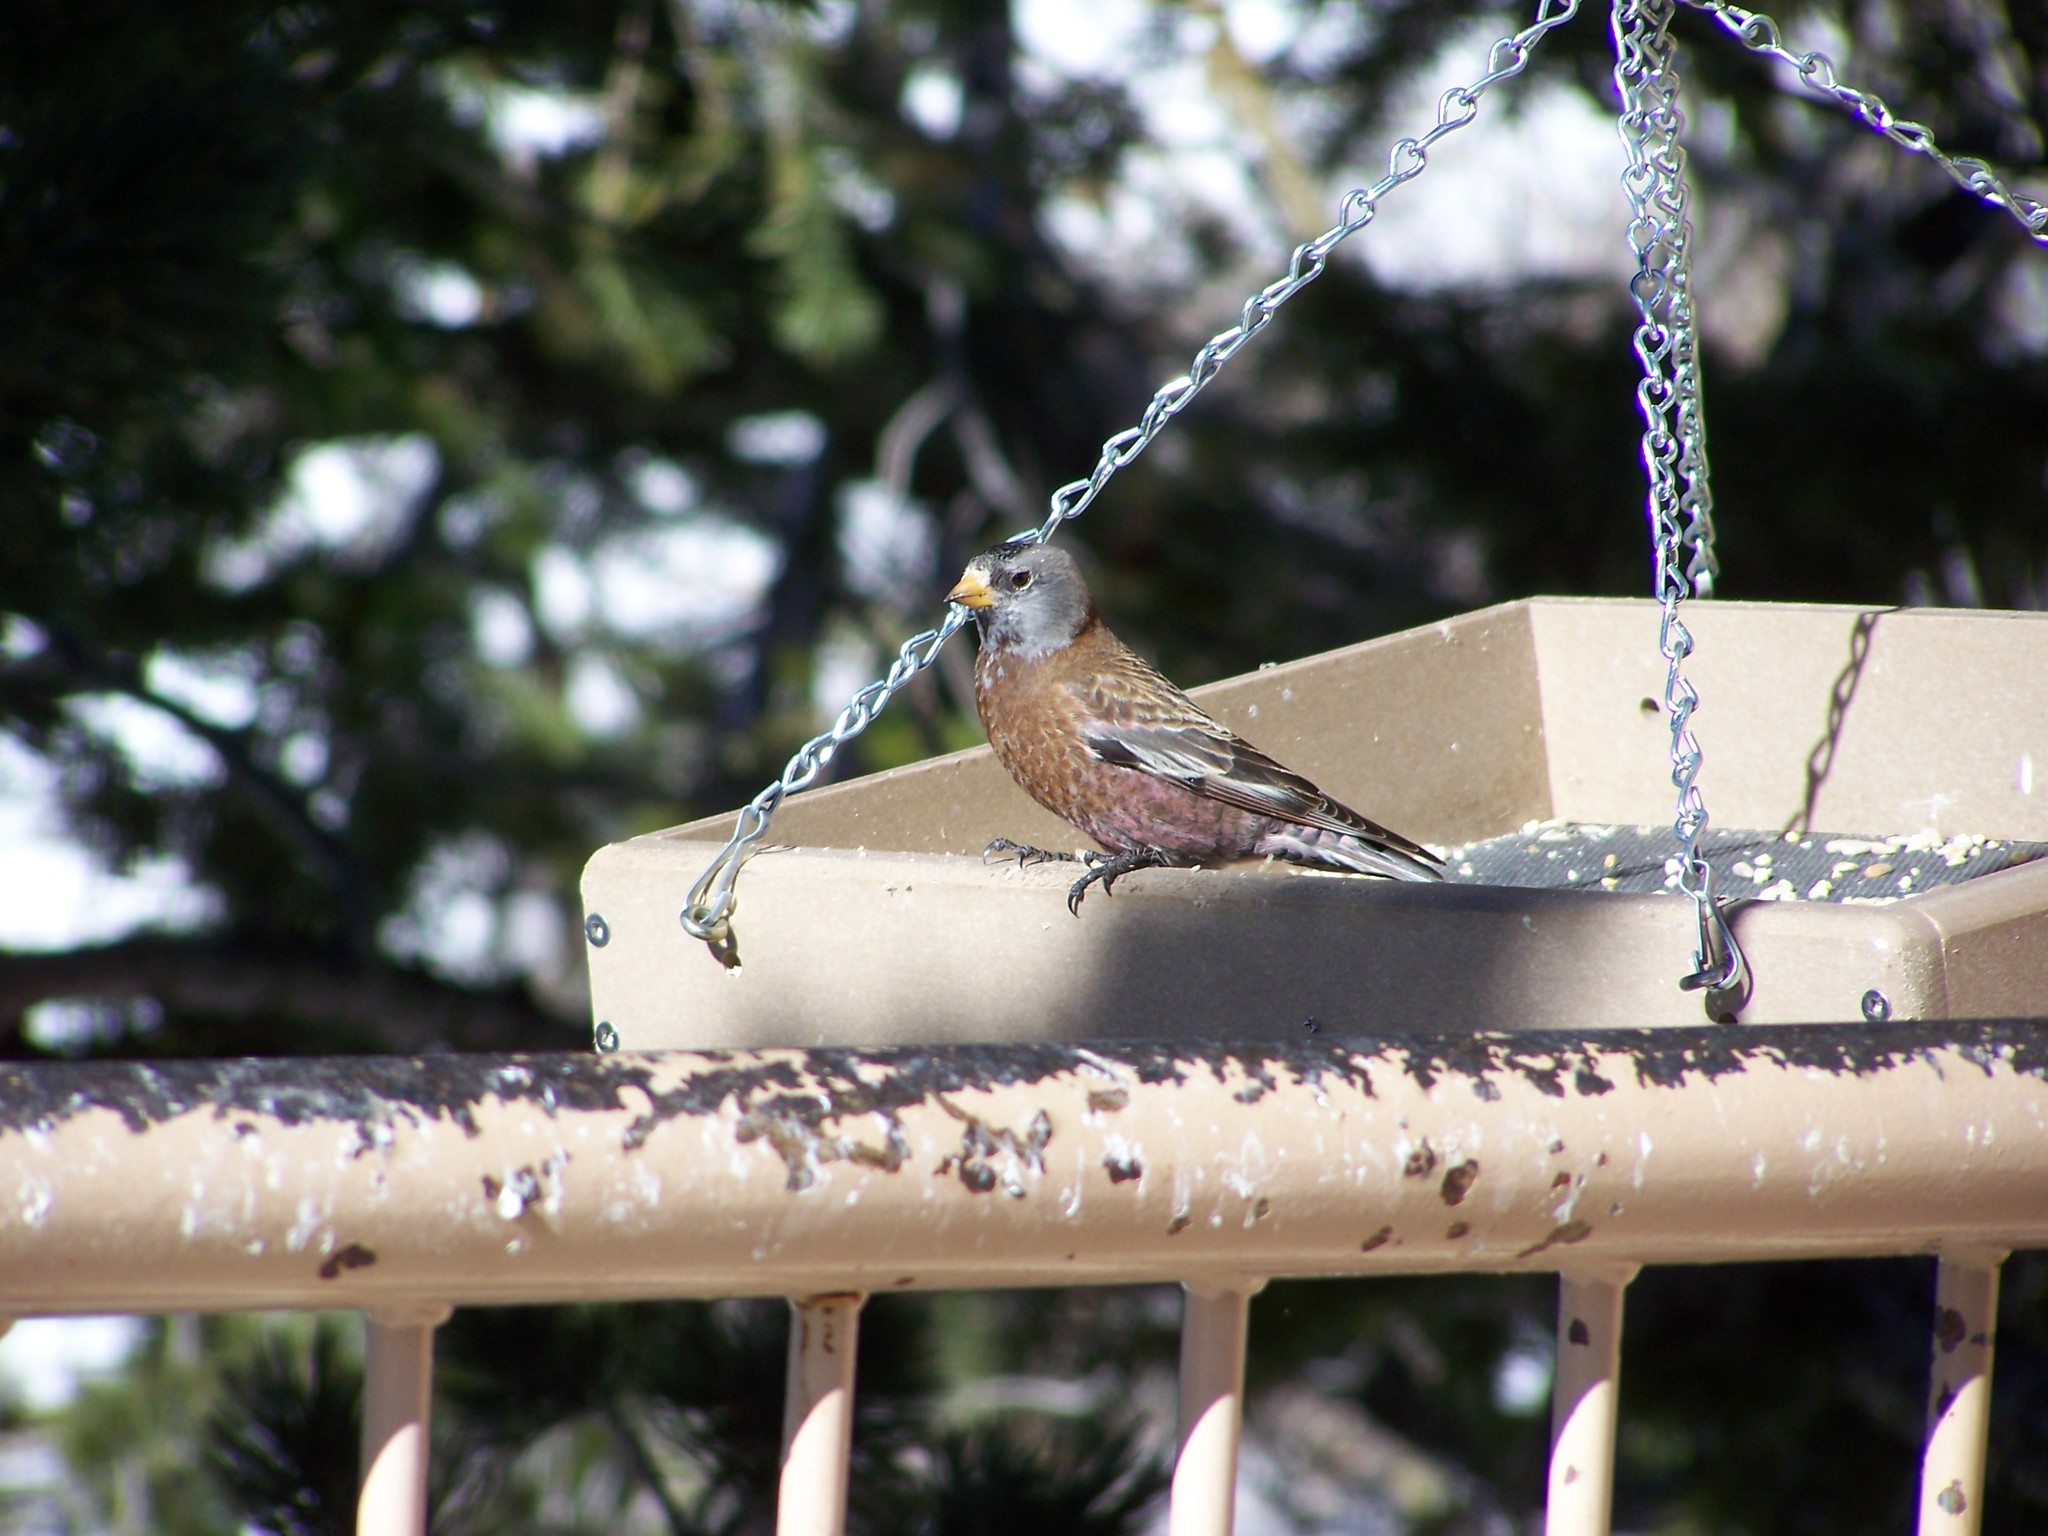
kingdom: Animalia
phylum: Chordata
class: Aves
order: Passeriformes
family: Fringillidae
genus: Leucosticte
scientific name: Leucosticte tephrocotis
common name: Gray-crowned rosy-finch
